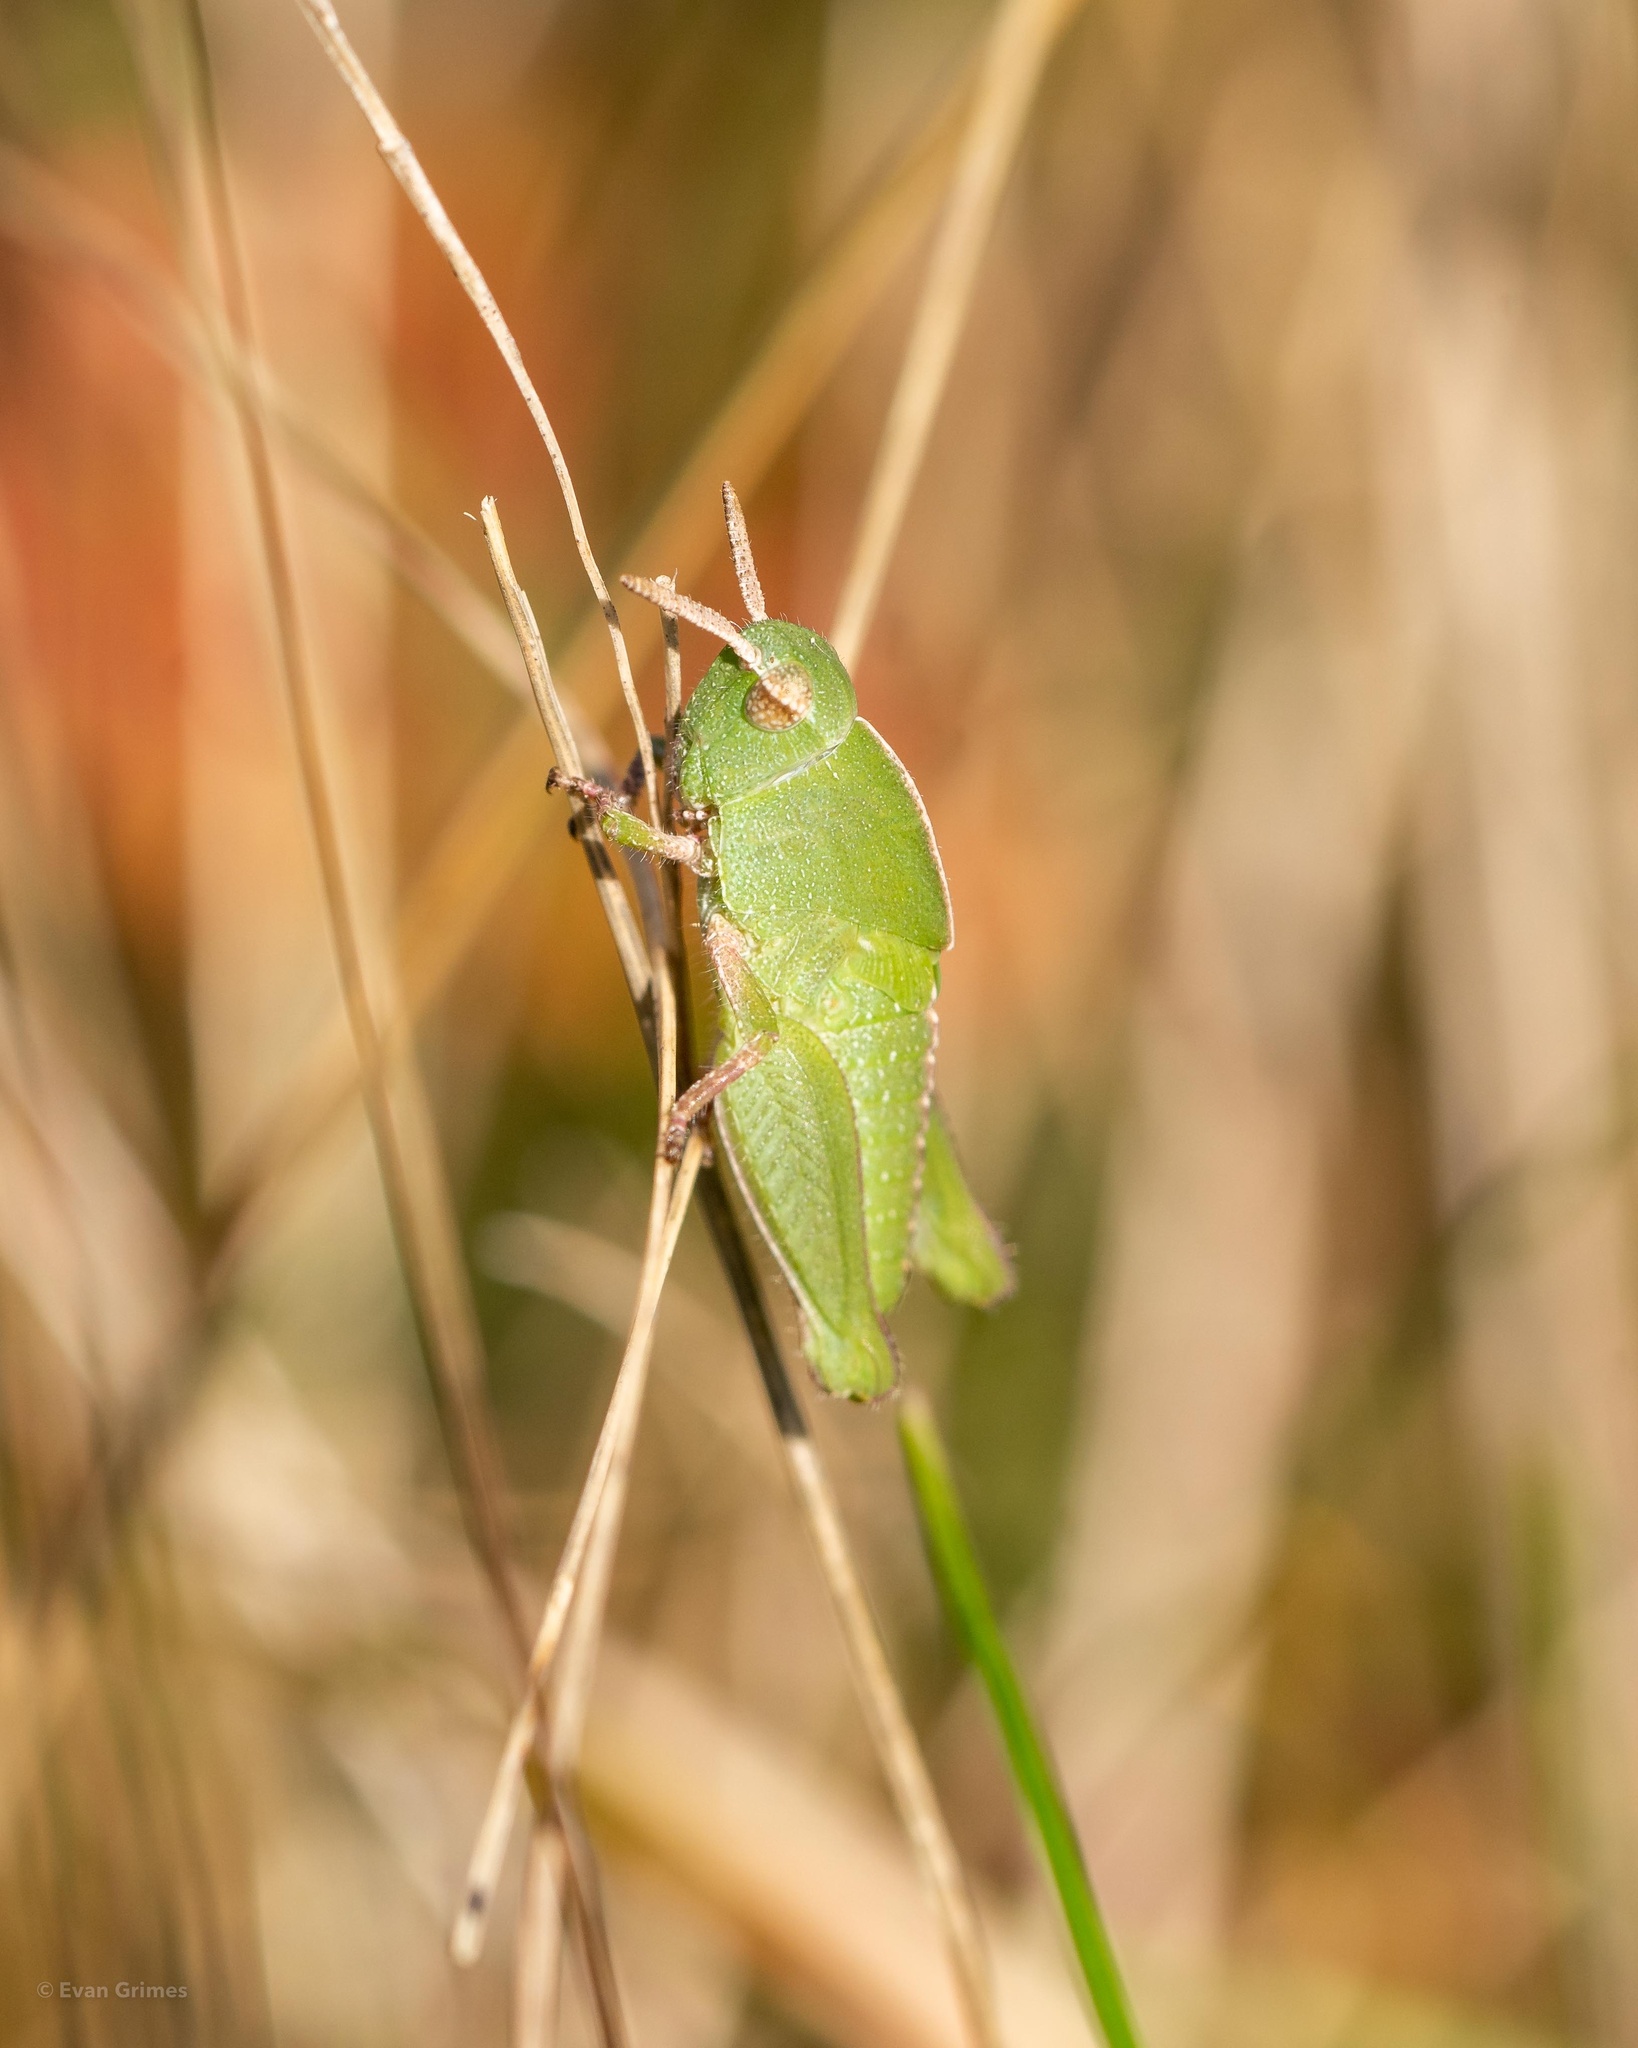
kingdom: Animalia
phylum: Arthropoda
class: Insecta
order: Orthoptera
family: Acrididae
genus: Chortophaga
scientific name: Chortophaga viridifasciata
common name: Green-striped grasshopper
